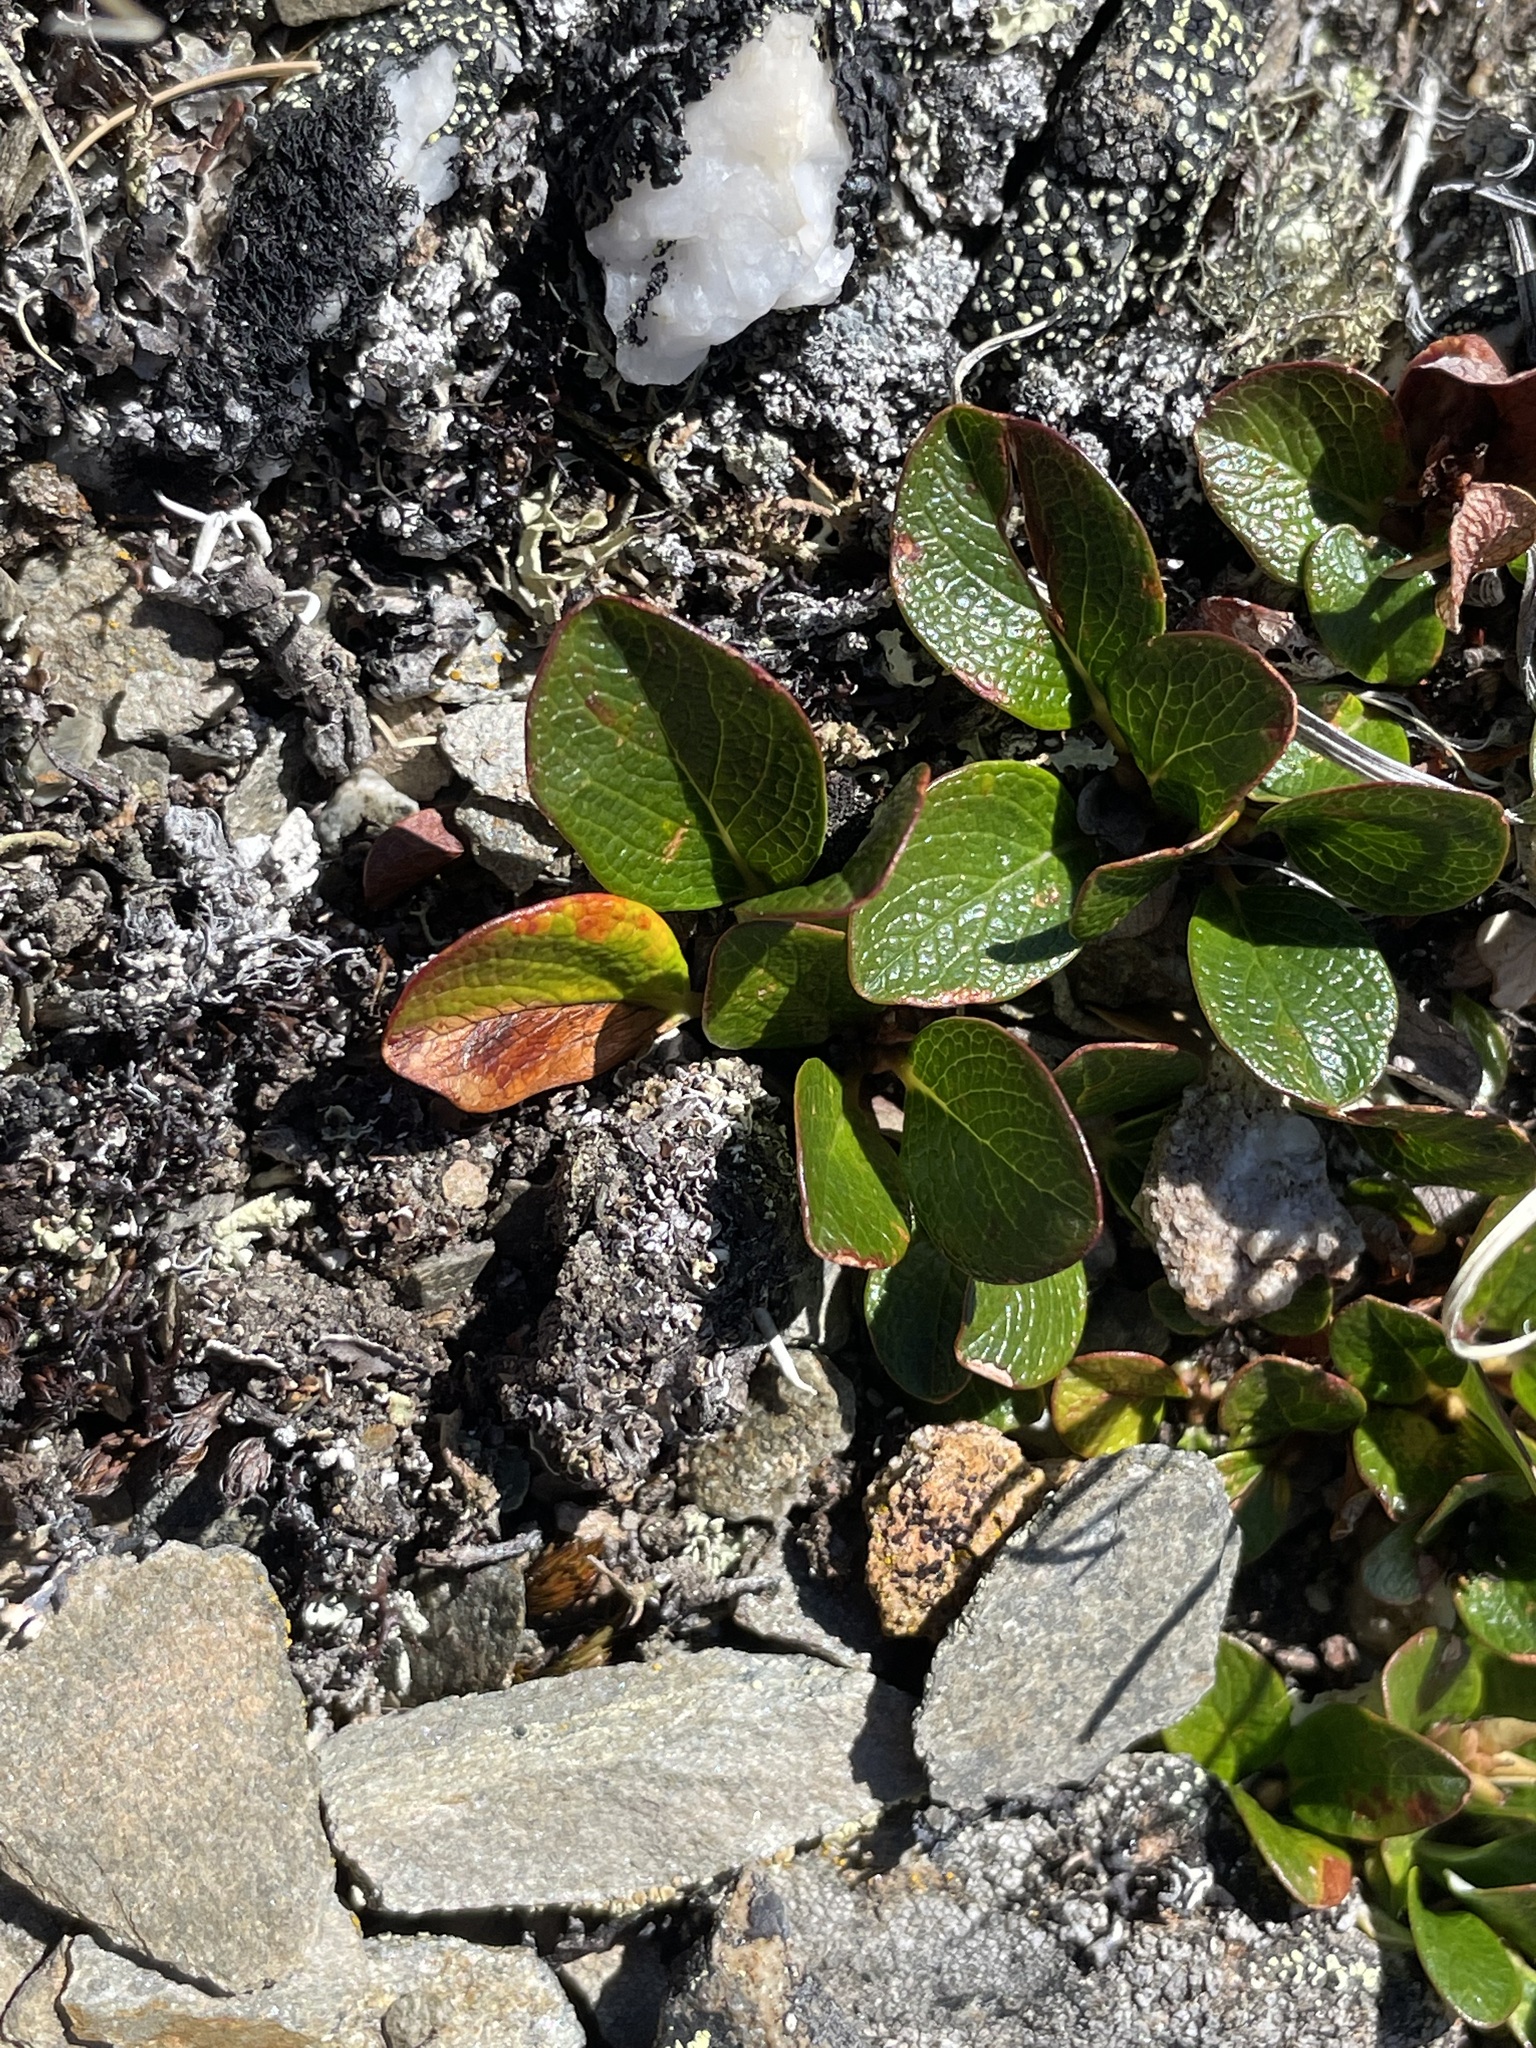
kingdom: Plantae
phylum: Tracheophyta
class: Magnoliopsida
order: Malpighiales
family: Salicaceae
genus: Salix
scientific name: Salix nivalis
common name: Dwarf snow willow
